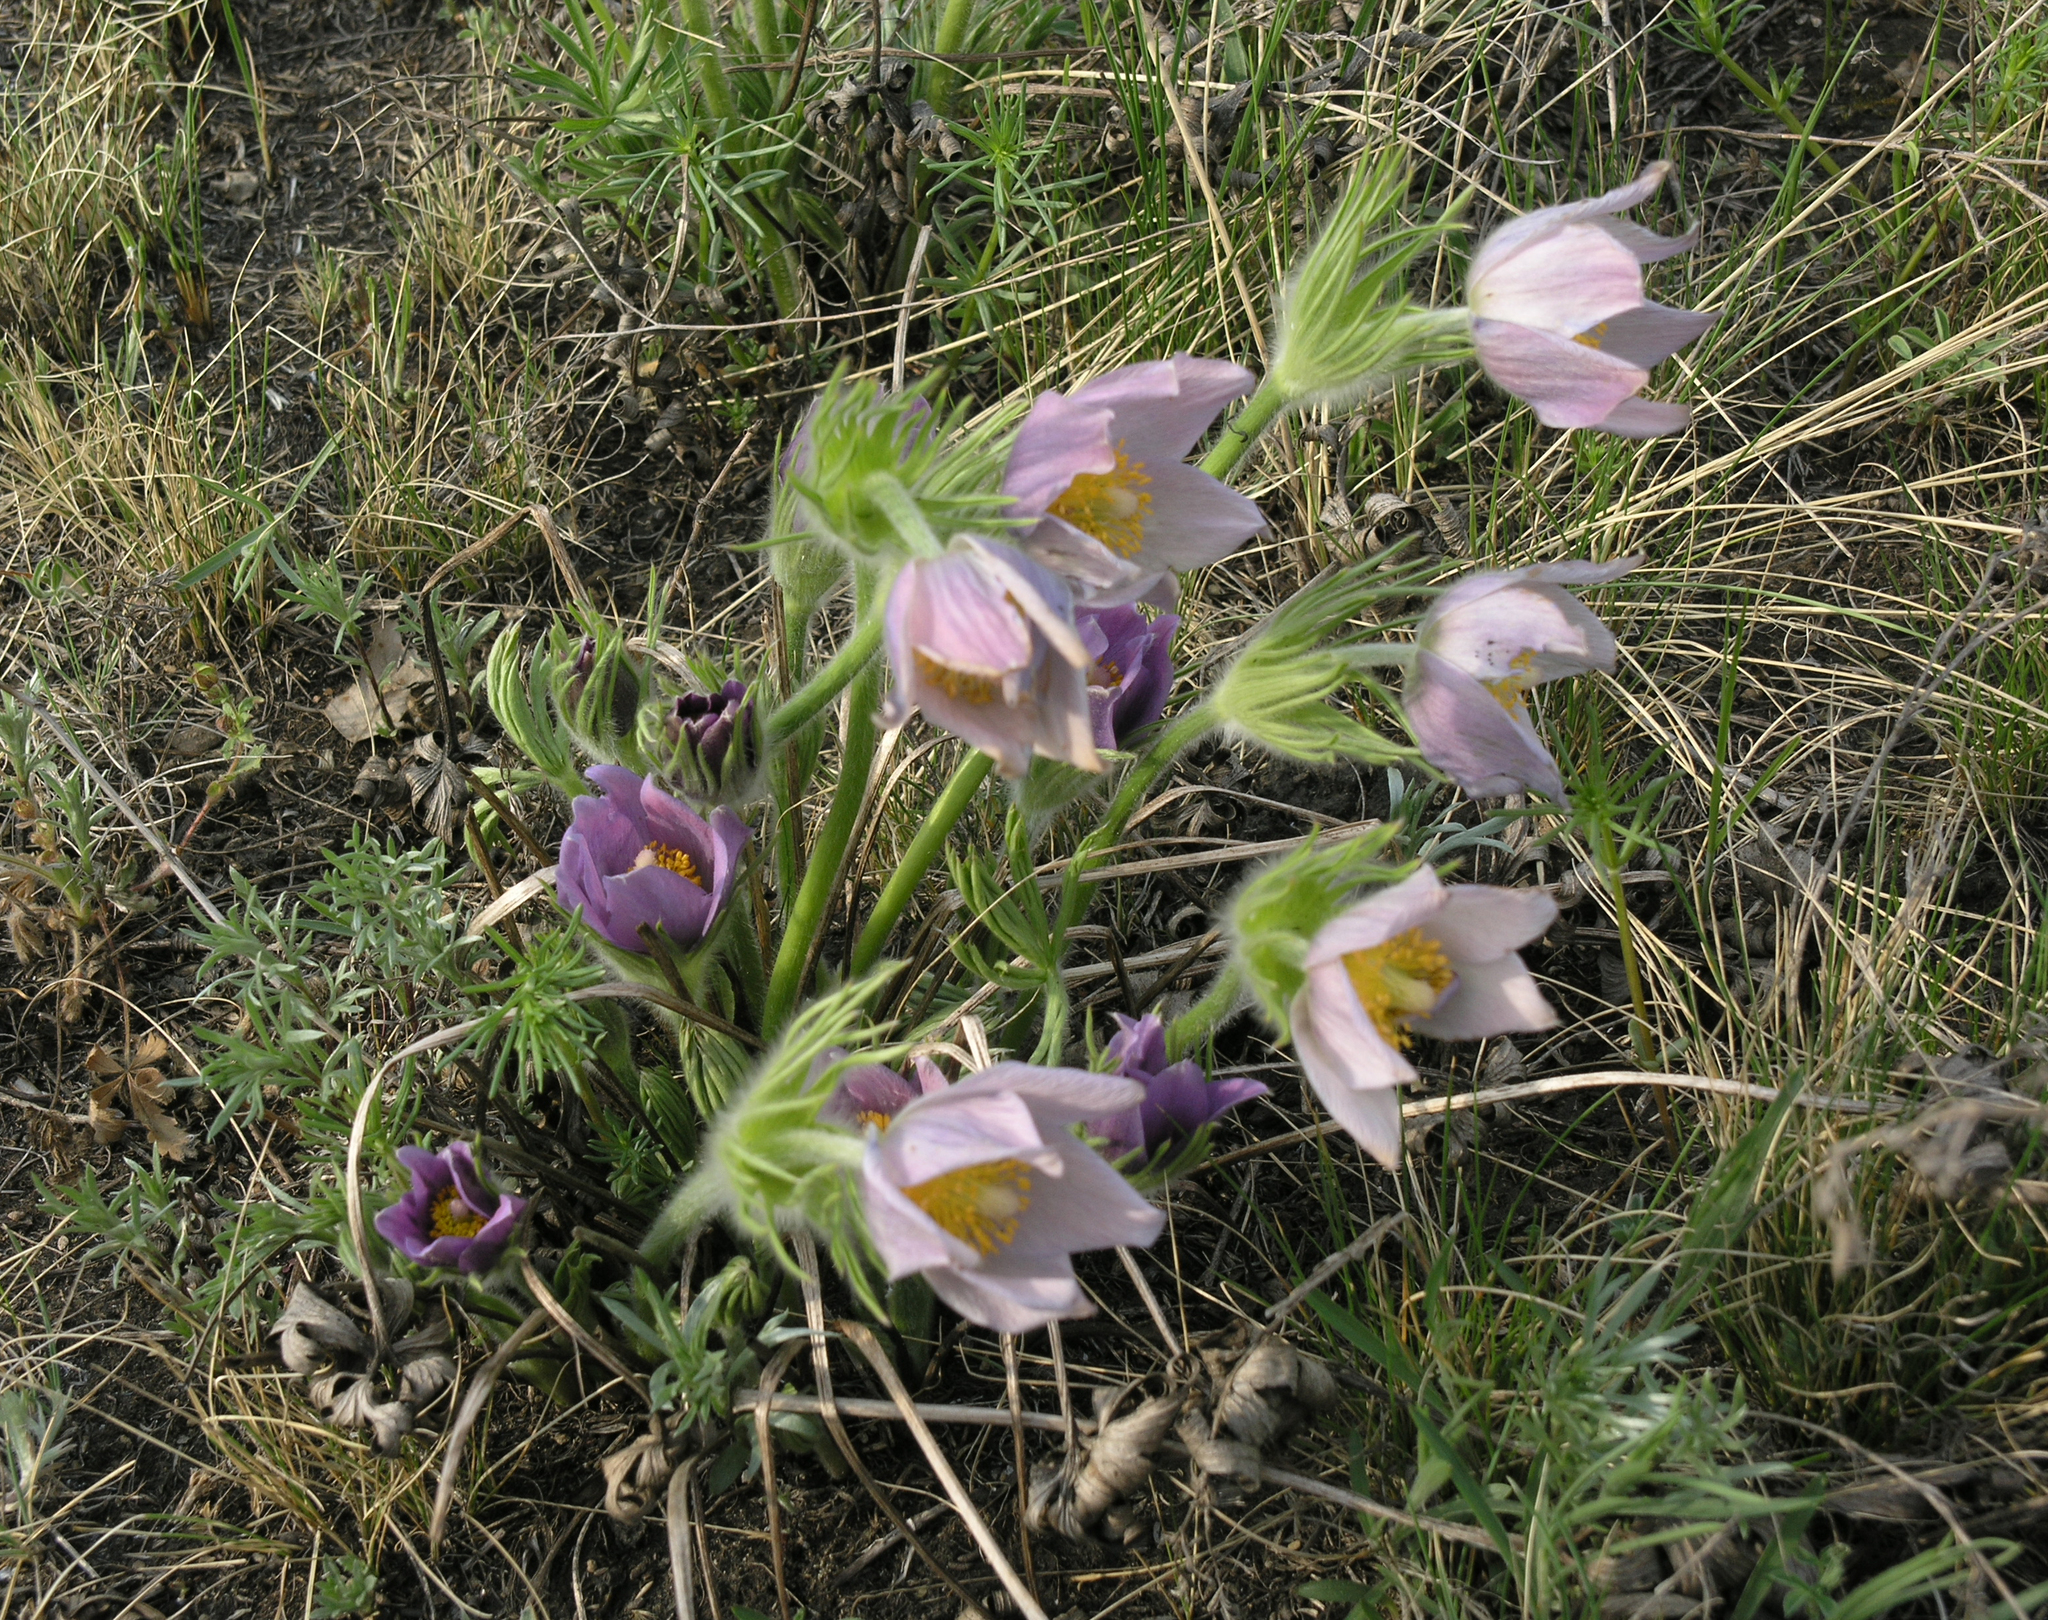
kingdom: Plantae
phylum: Tracheophyta
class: Magnoliopsida
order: Ranunculales
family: Ranunculaceae
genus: Pulsatilla
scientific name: Pulsatilla patens
